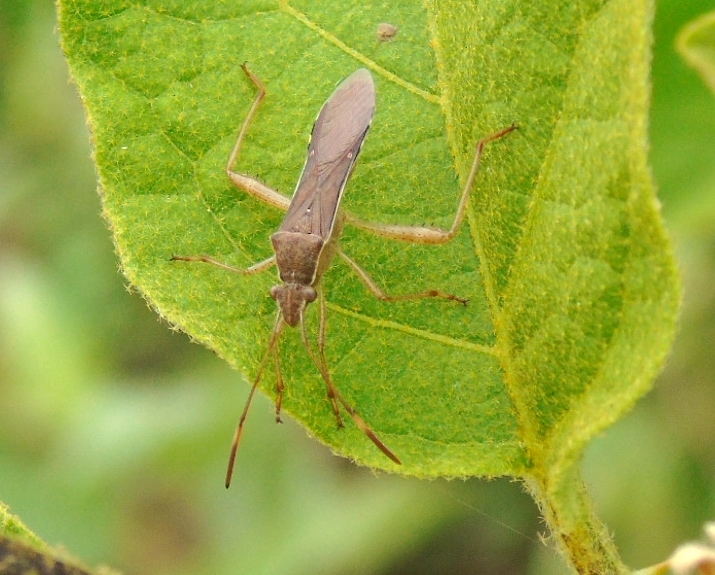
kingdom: Animalia
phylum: Arthropoda
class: Insecta
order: Hemiptera
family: Alydidae
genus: Burtinus
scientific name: Burtinus notatipennis
